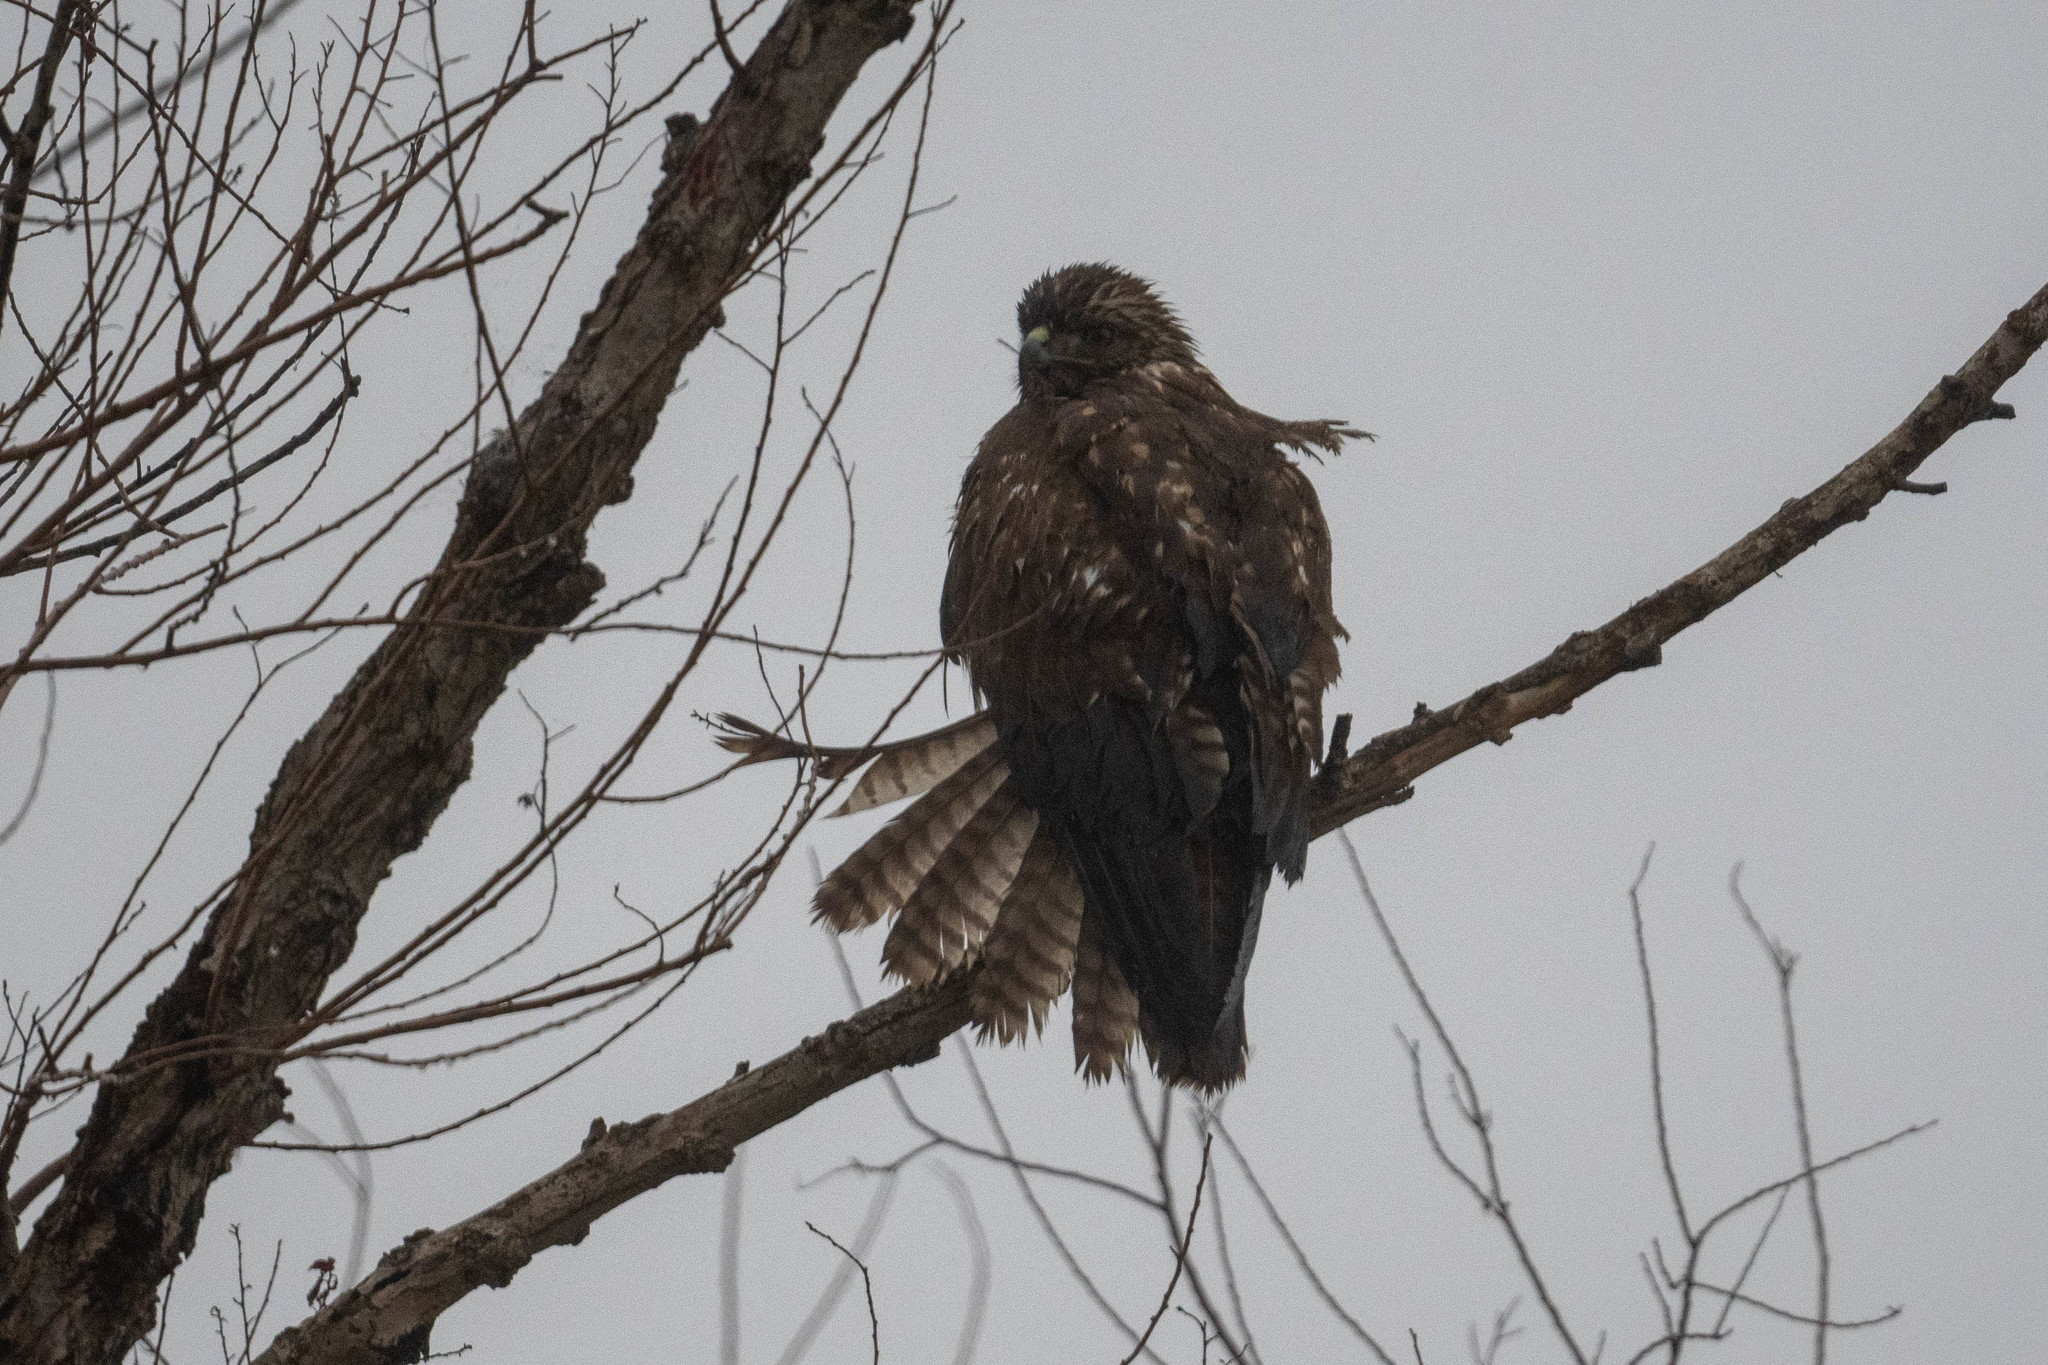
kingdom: Animalia
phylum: Chordata
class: Aves
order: Accipitriformes
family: Accipitridae
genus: Buteo
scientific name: Buteo jamaicensis
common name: Red-tailed hawk
